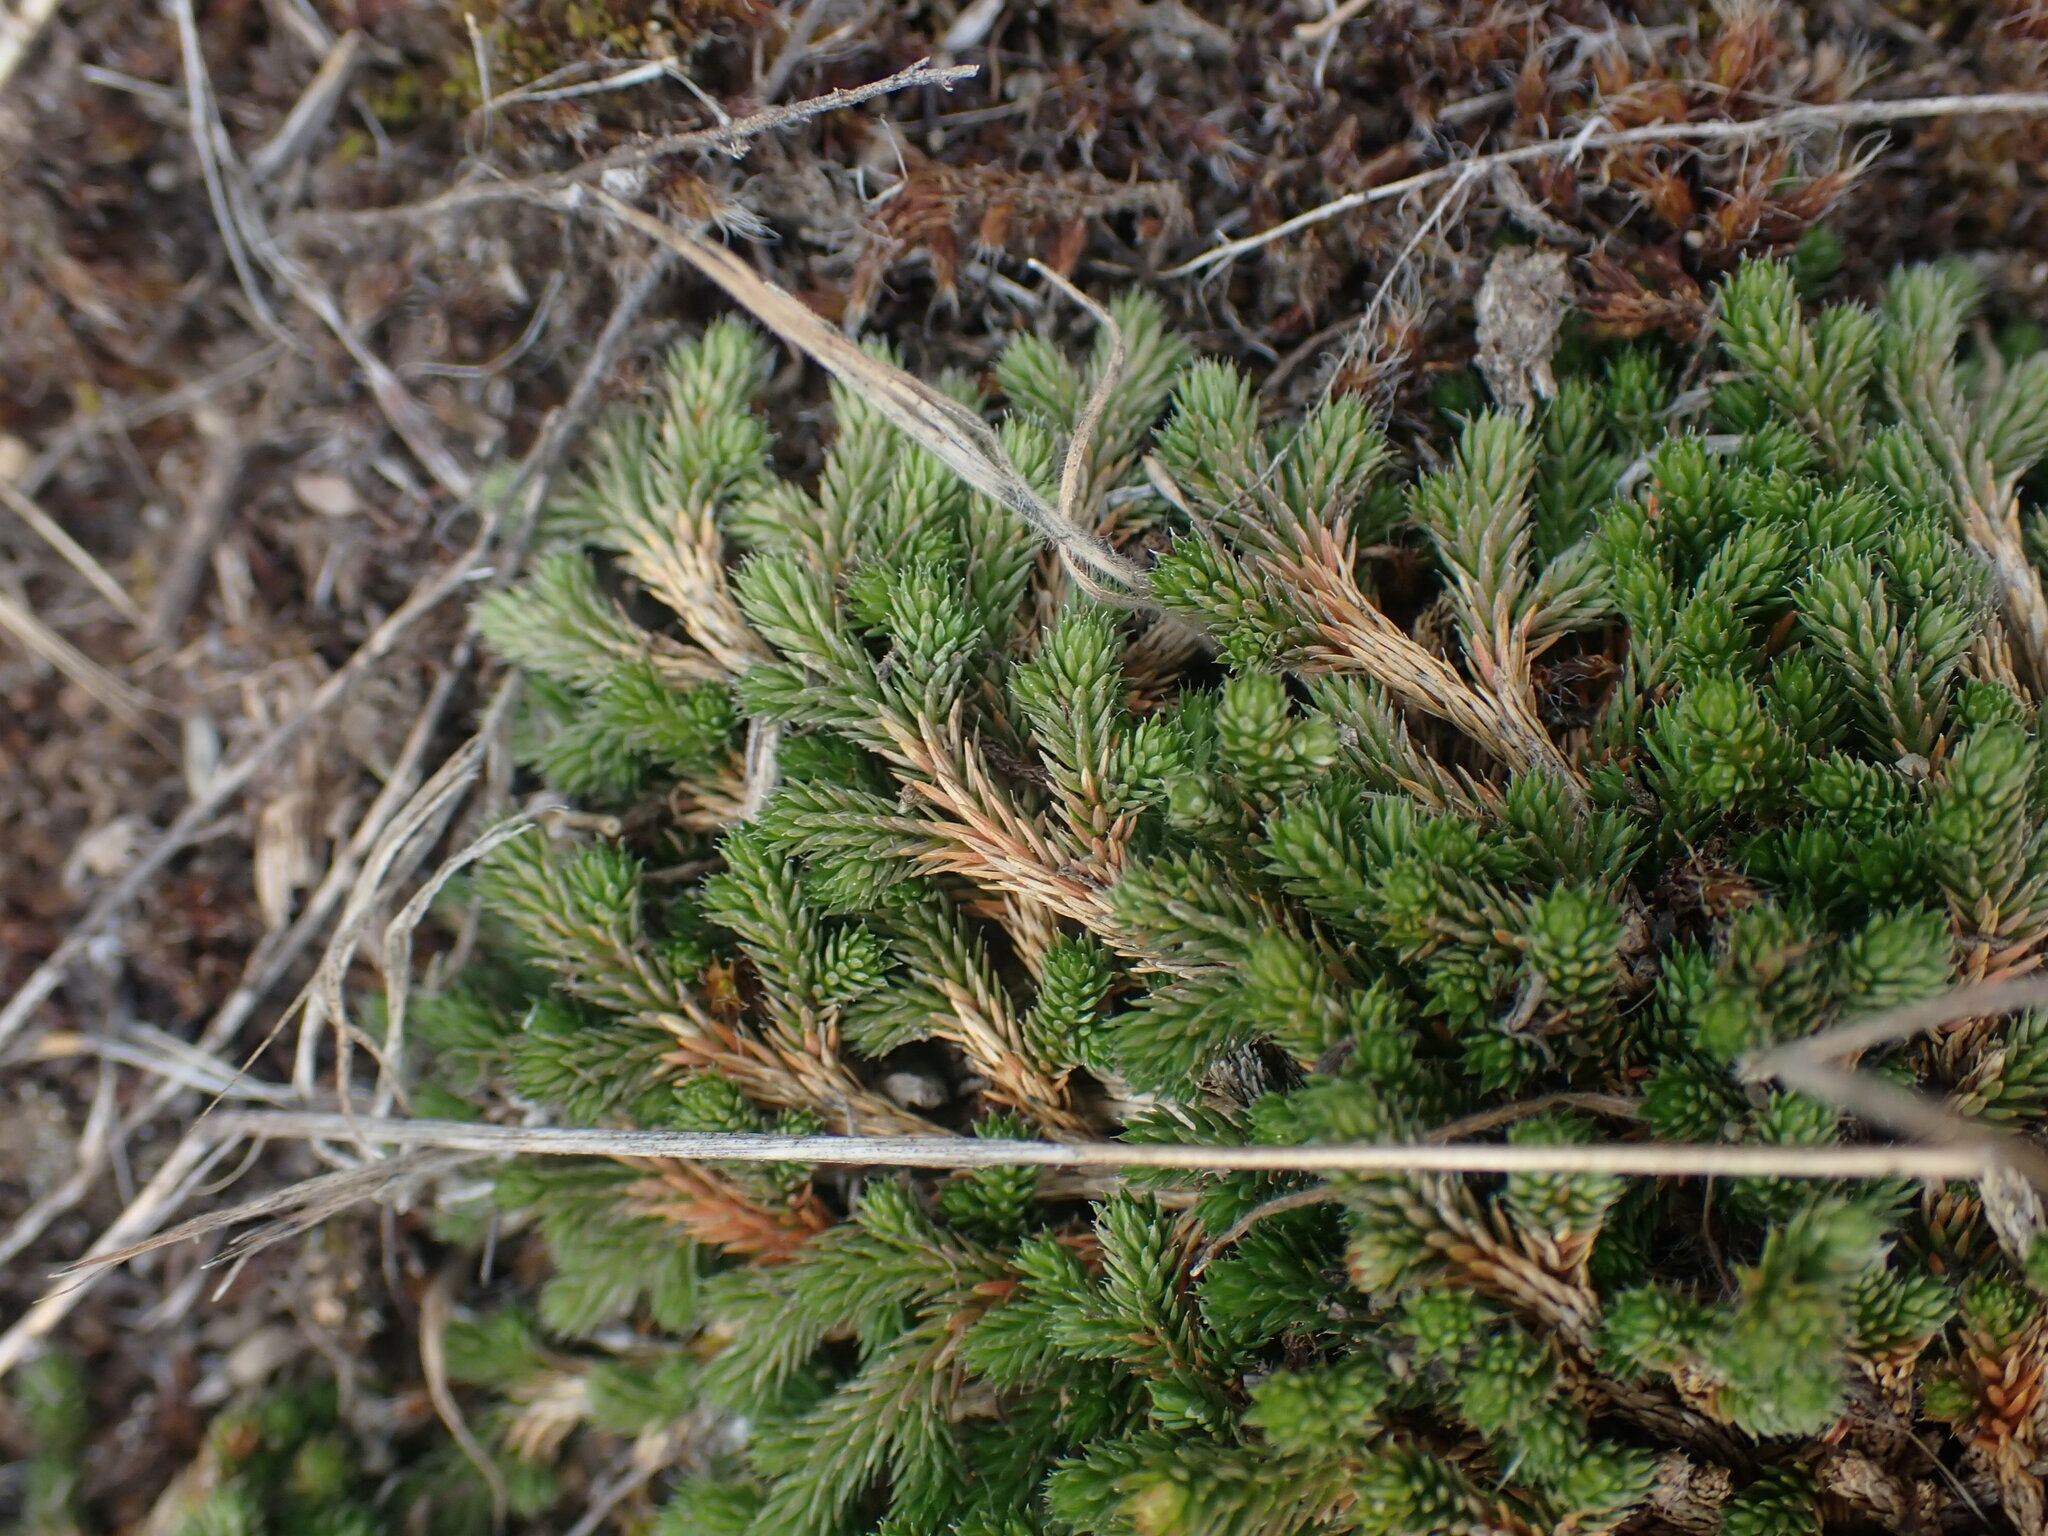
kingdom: Plantae
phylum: Tracheophyta
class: Lycopodiopsida
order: Selaginellales
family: Selaginellaceae
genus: Selaginella
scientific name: Selaginella wallacei
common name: Wallace's selaginella
